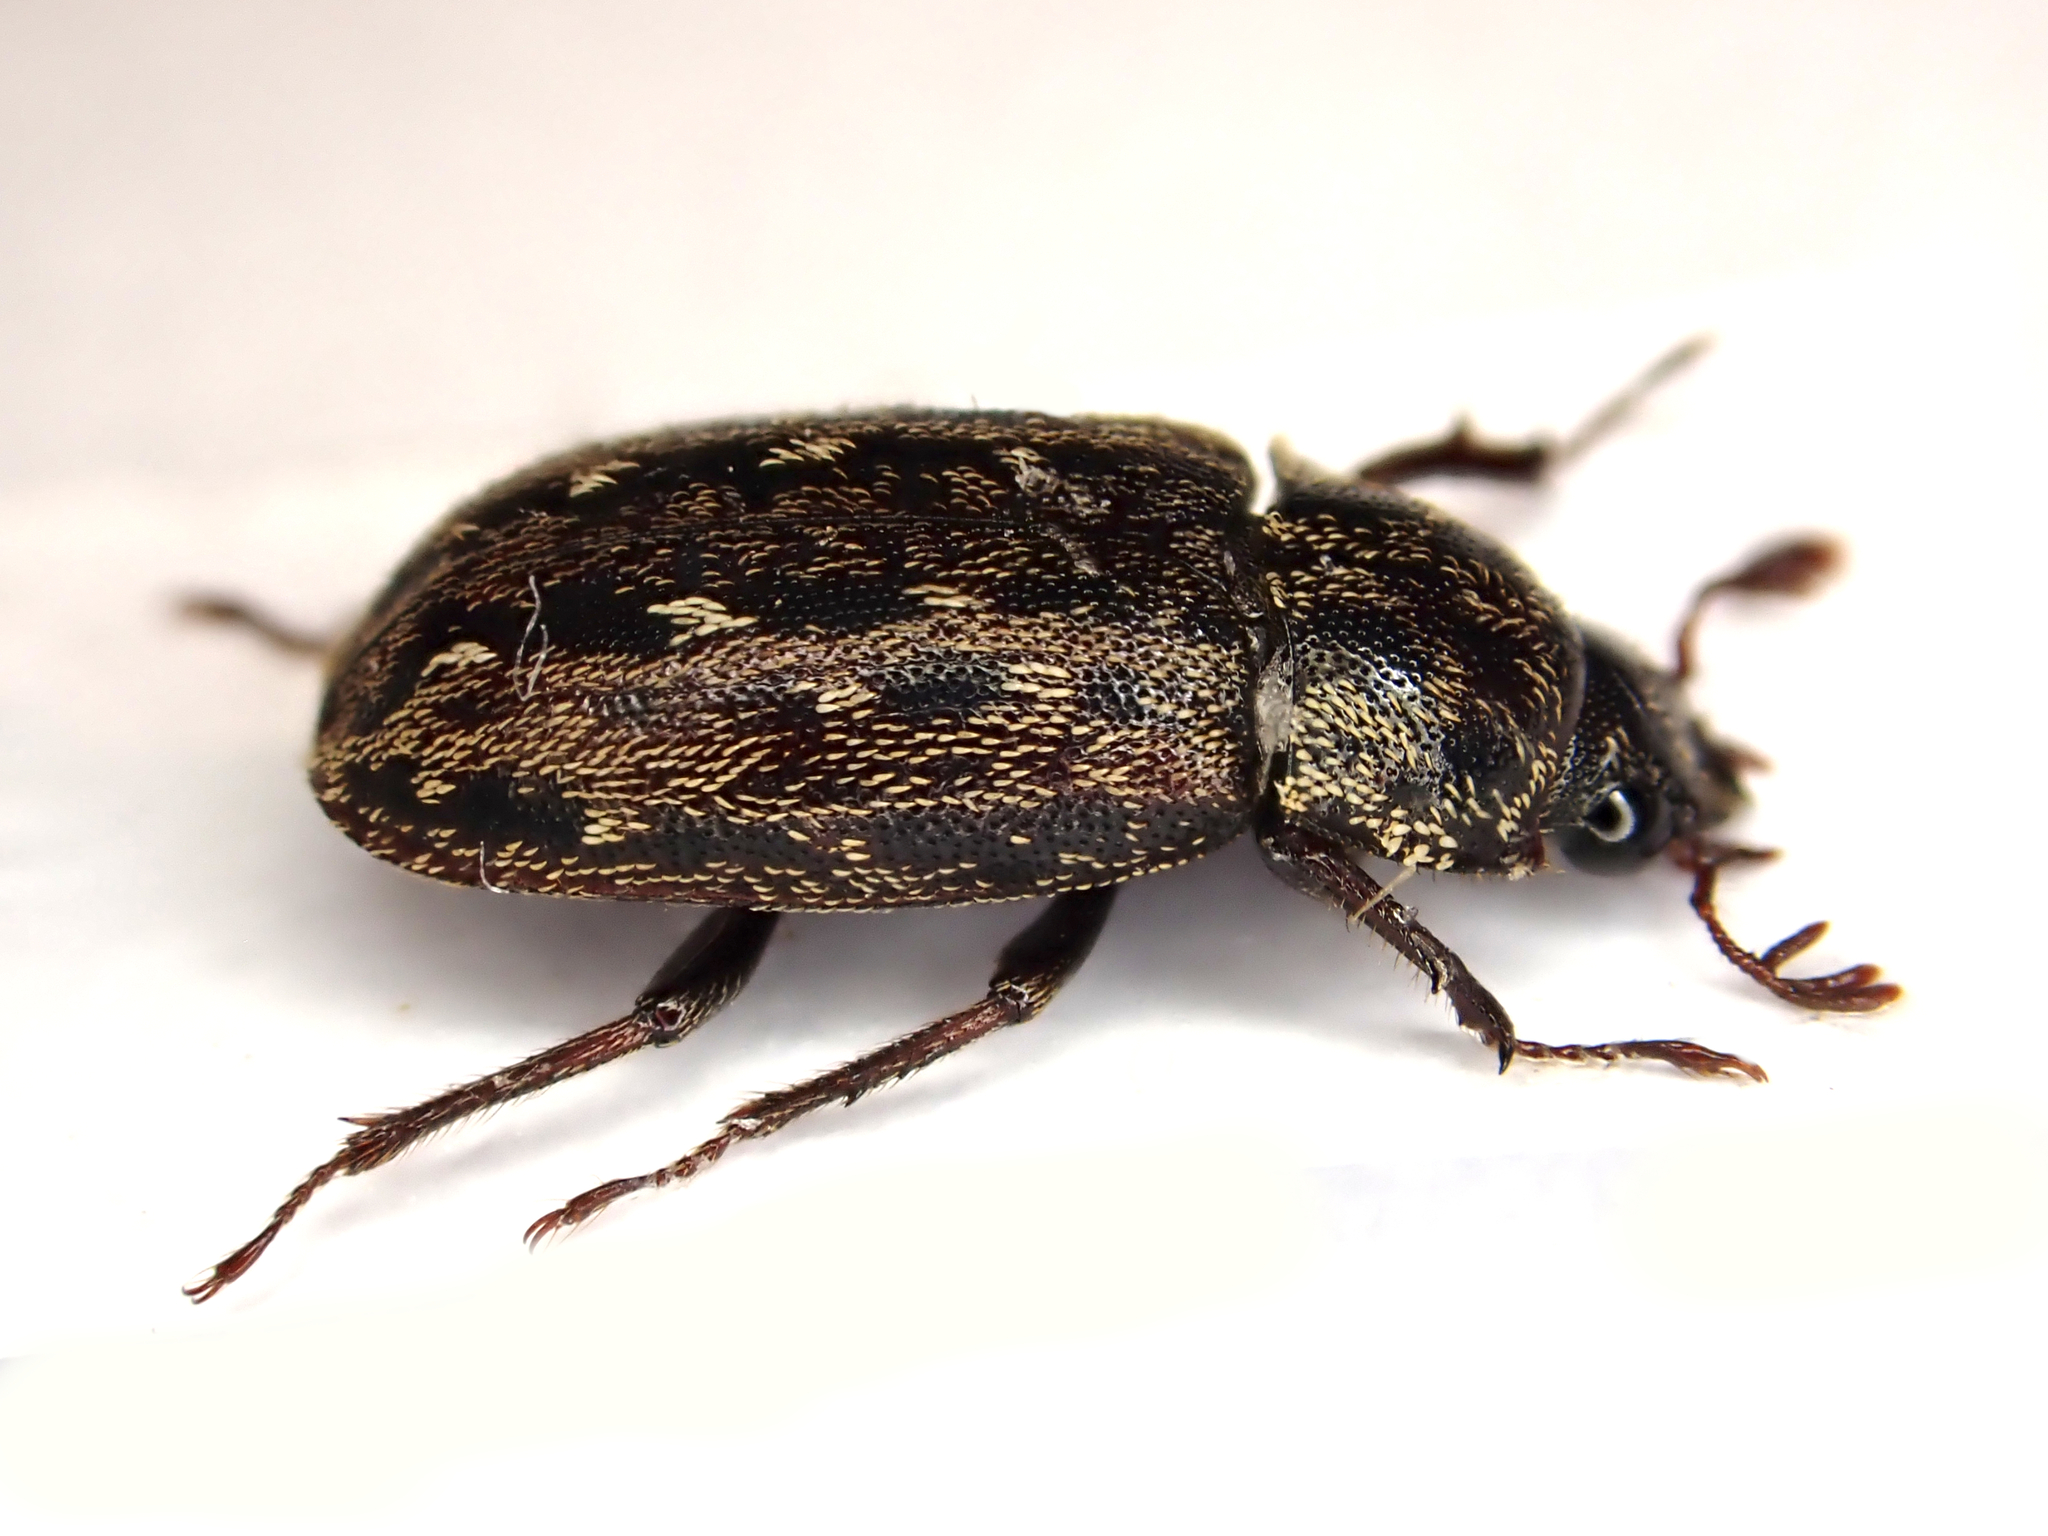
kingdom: Animalia
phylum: Arthropoda
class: Insecta
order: Coleoptera
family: Lucanidae
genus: Mitophyllus
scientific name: Mitophyllus arcuatus
